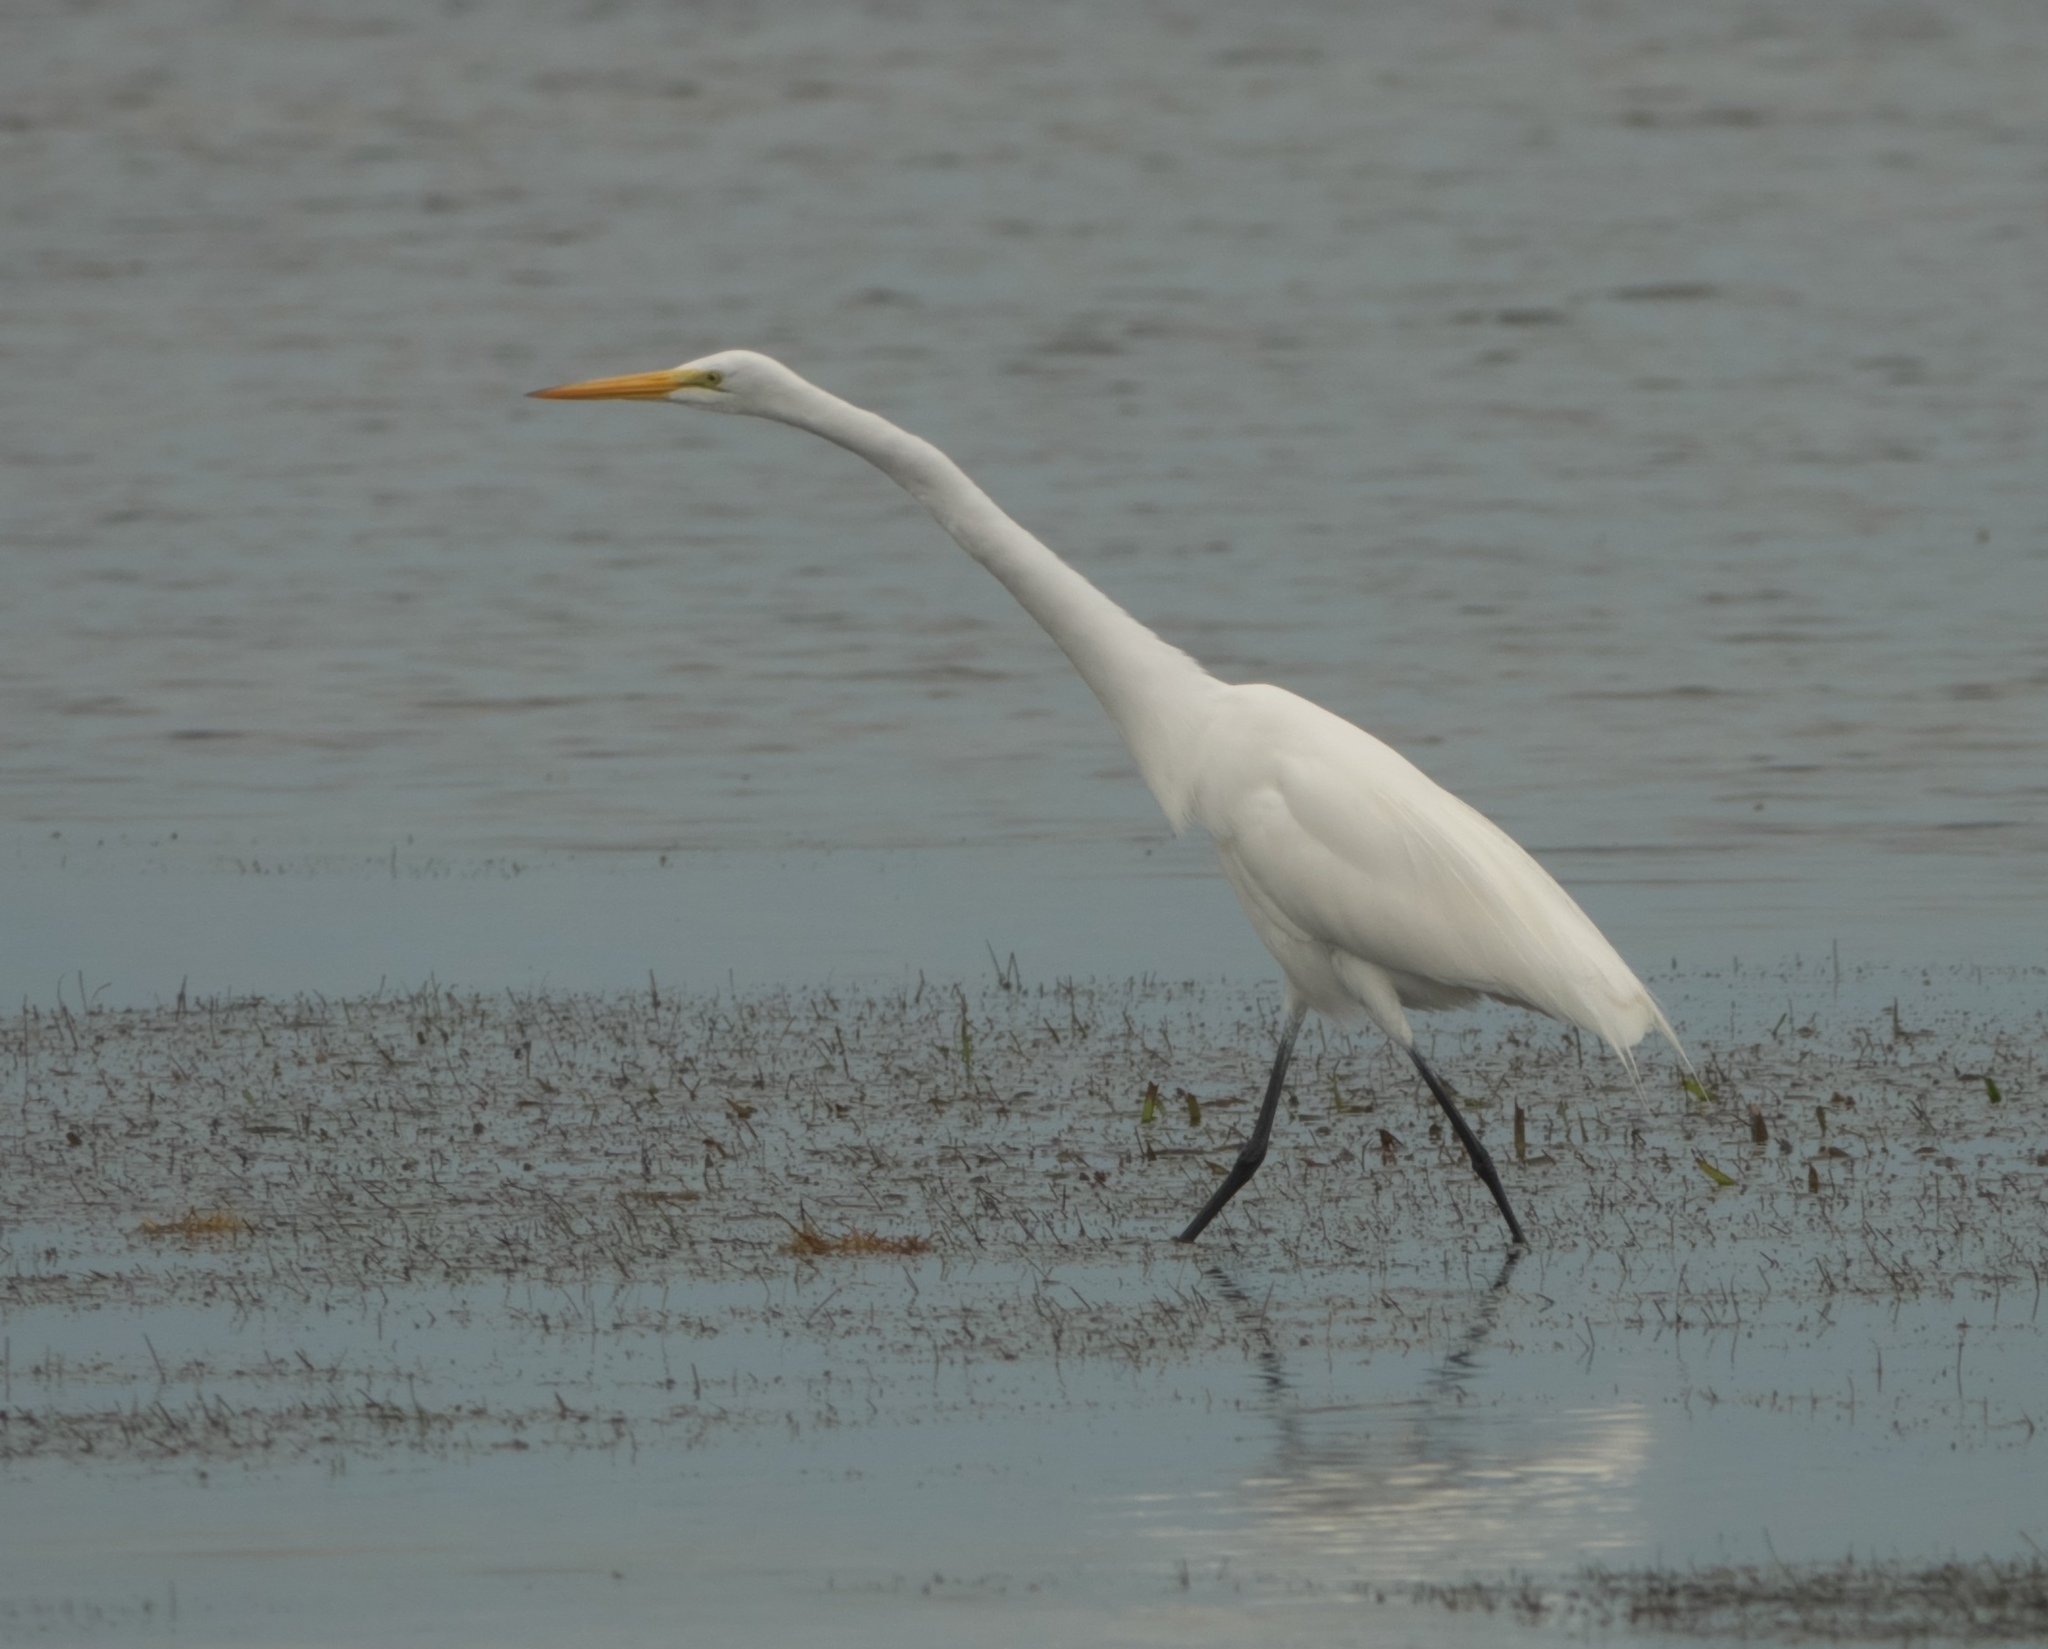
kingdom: Animalia
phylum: Chordata
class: Aves
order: Pelecaniformes
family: Ardeidae
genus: Ardea
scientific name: Ardea alba
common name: Great egret
